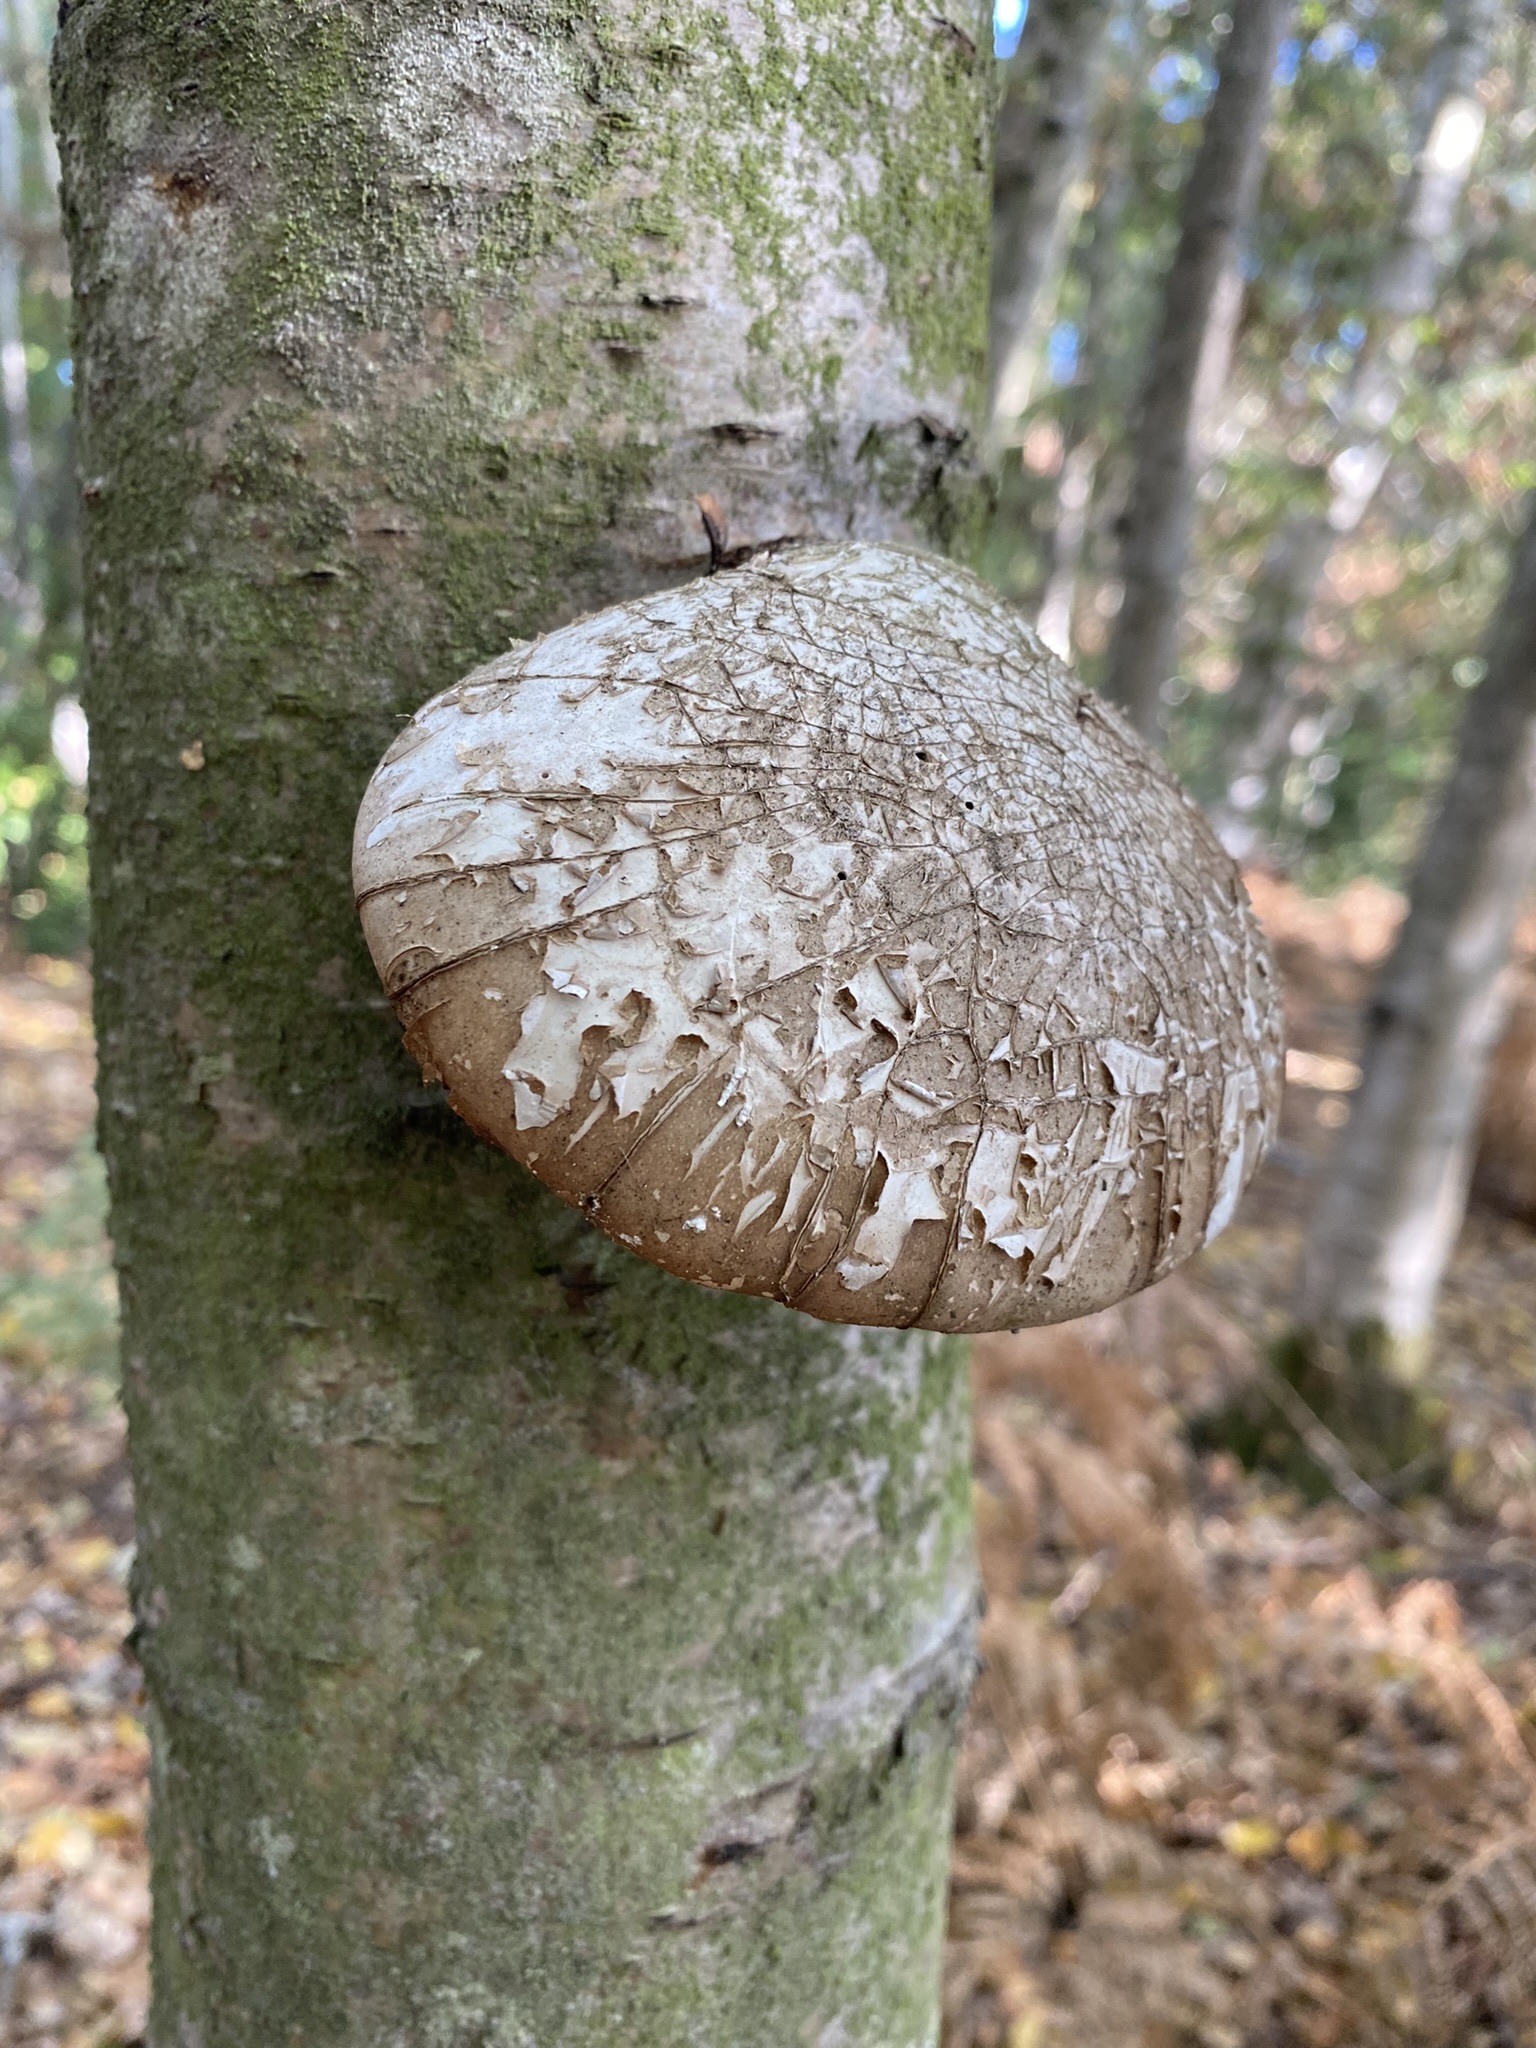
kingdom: Fungi
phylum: Basidiomycota
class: Agaricomycetes
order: Polyporales
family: Fomitopsidaceae
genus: Fomitopsis
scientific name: Fomitopsis betulina
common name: Birch polypore
